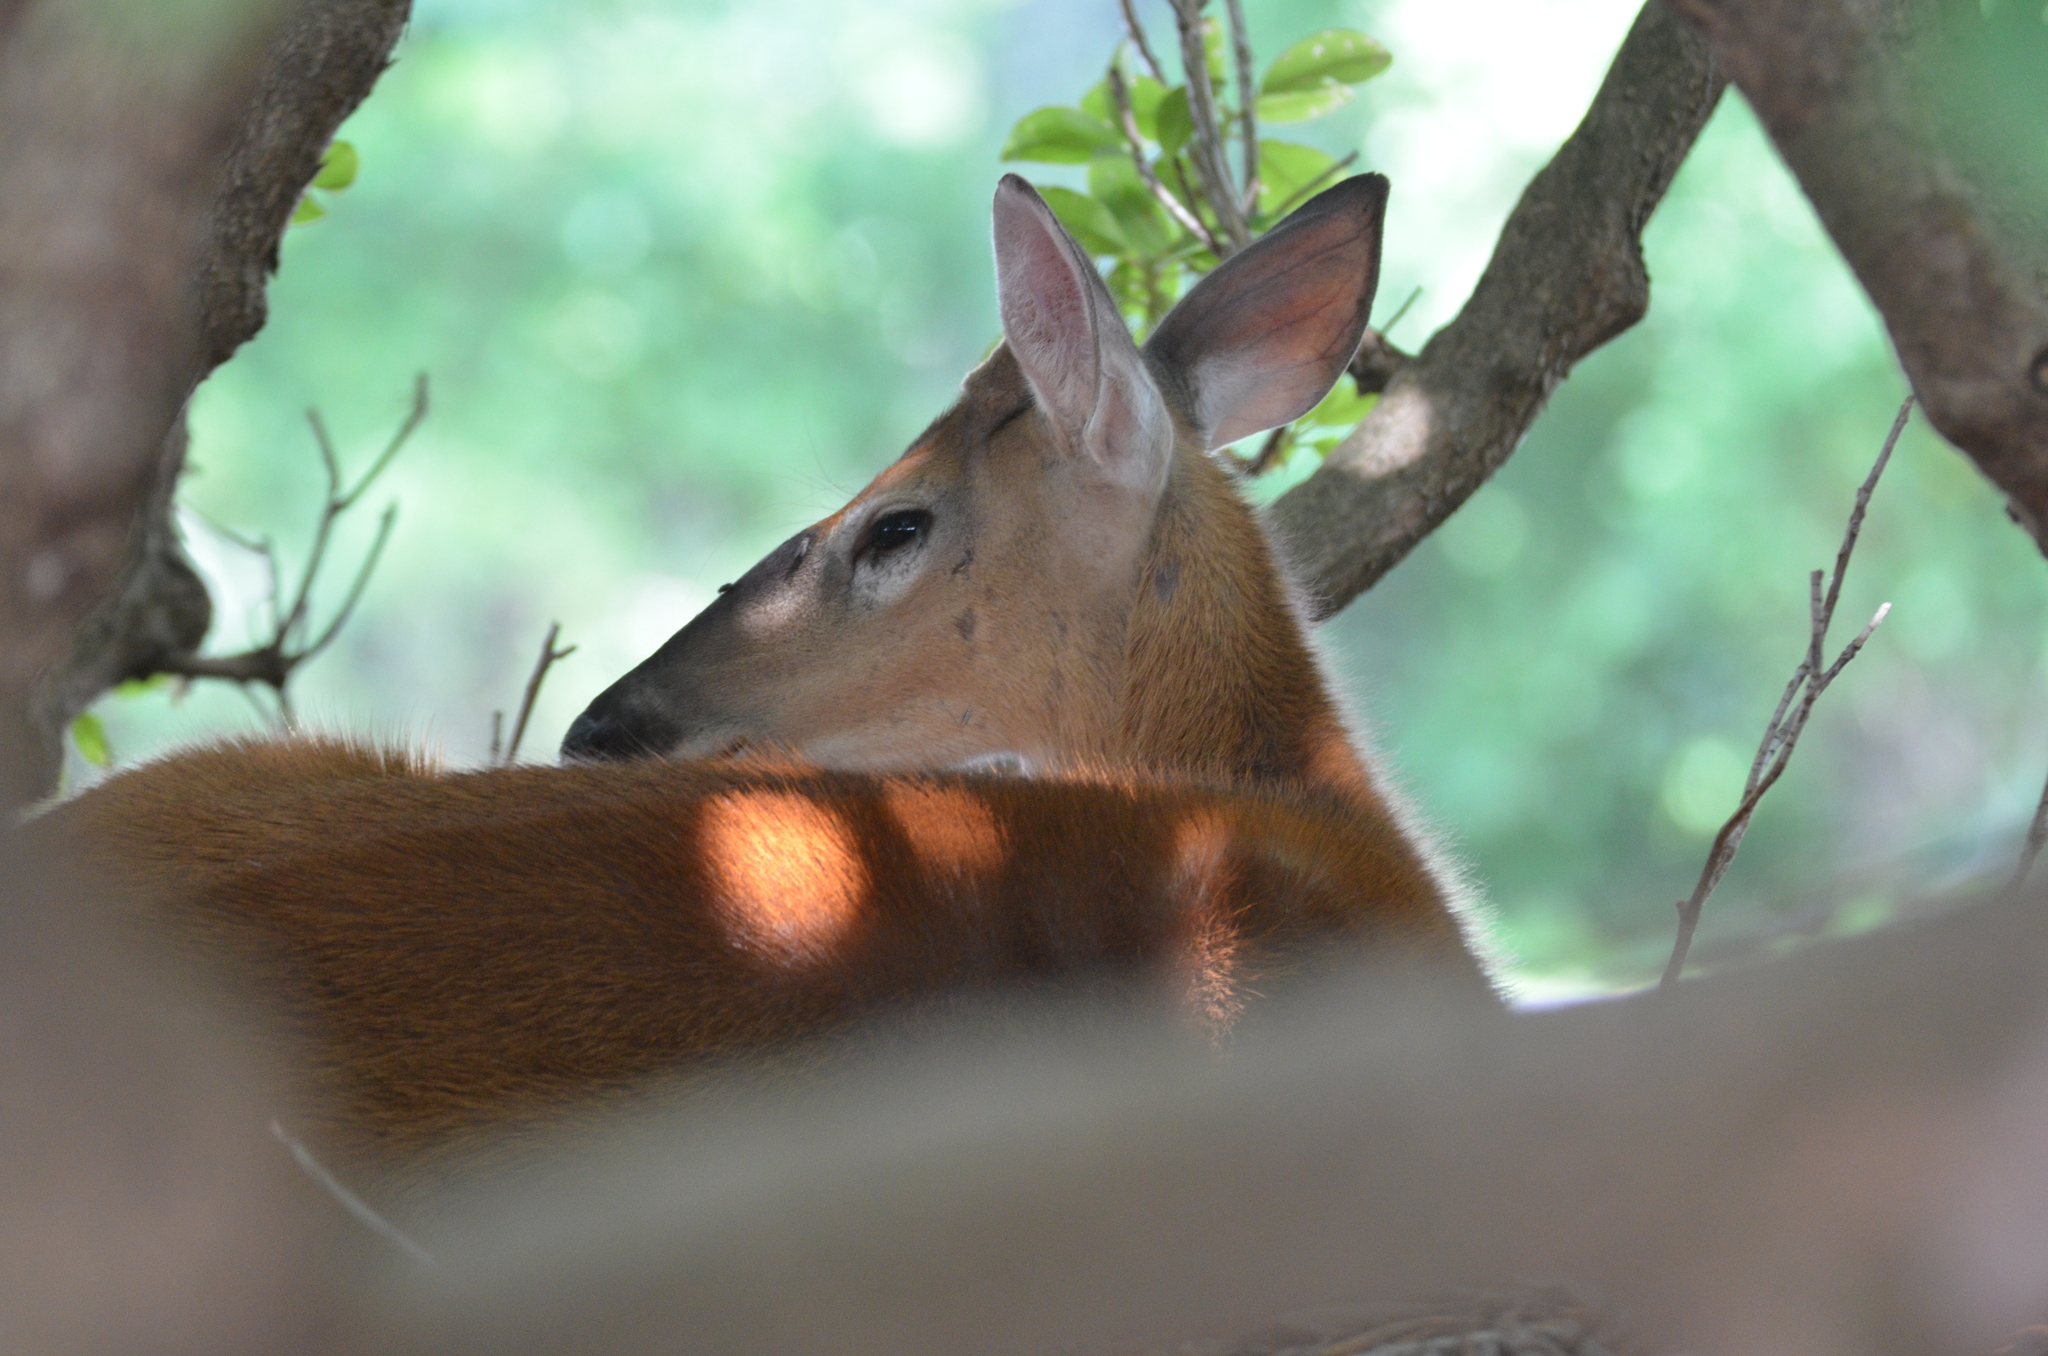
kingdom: Animalia
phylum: Chordata
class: Mammalia
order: Artiodactyla
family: Cervidae
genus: Odocoileus
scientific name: Odocoileus virginianus
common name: White-tailed deer
